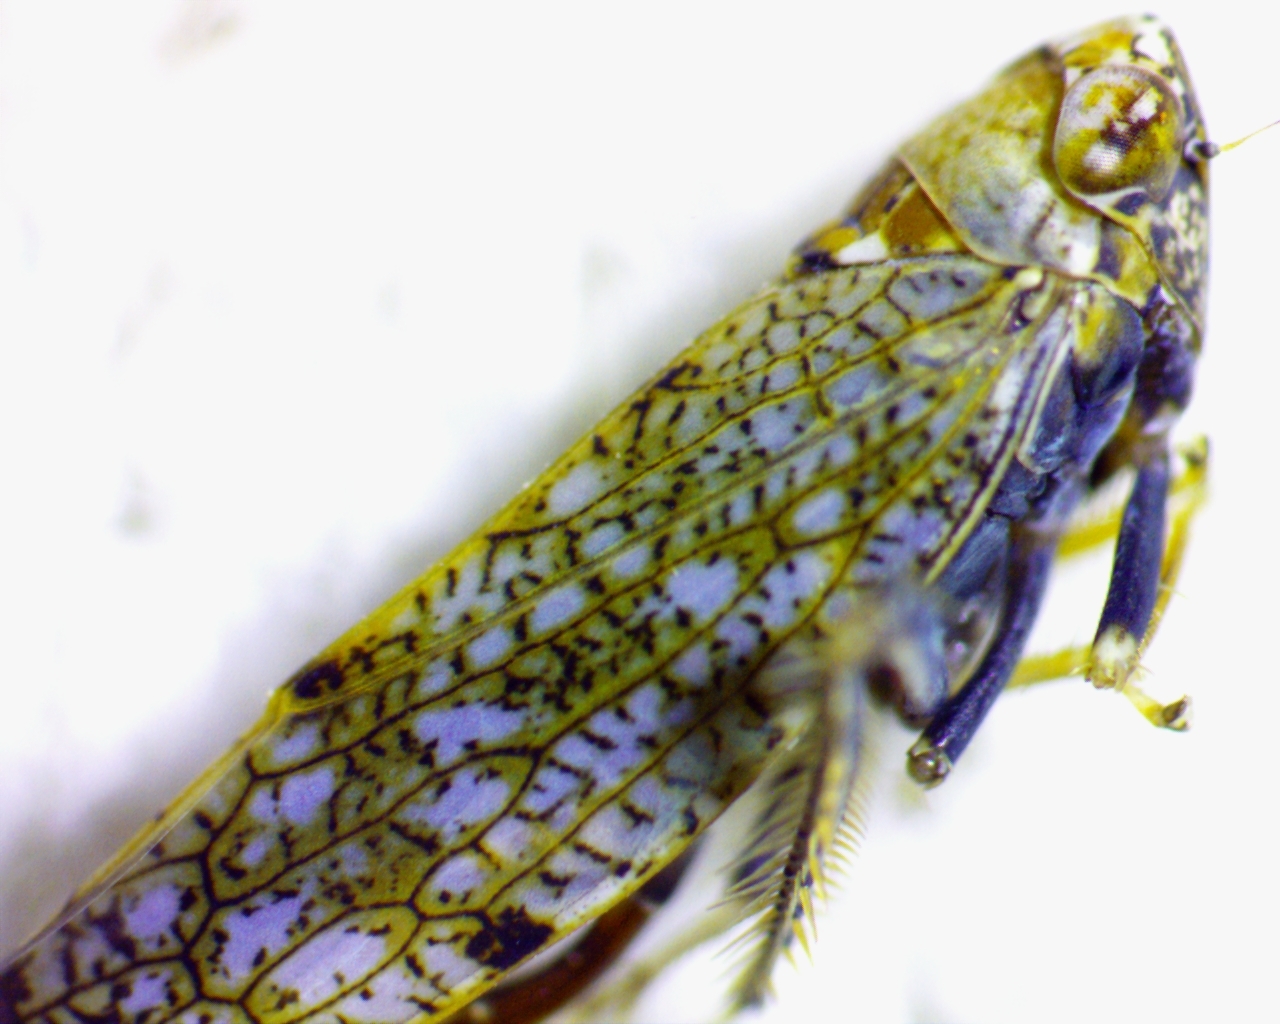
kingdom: Animalia
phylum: Arthropoda
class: Insecta
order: Hemiptera
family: Cicadellidae
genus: Orientus
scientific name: Orientus ishidae
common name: Japanese leafhopper
